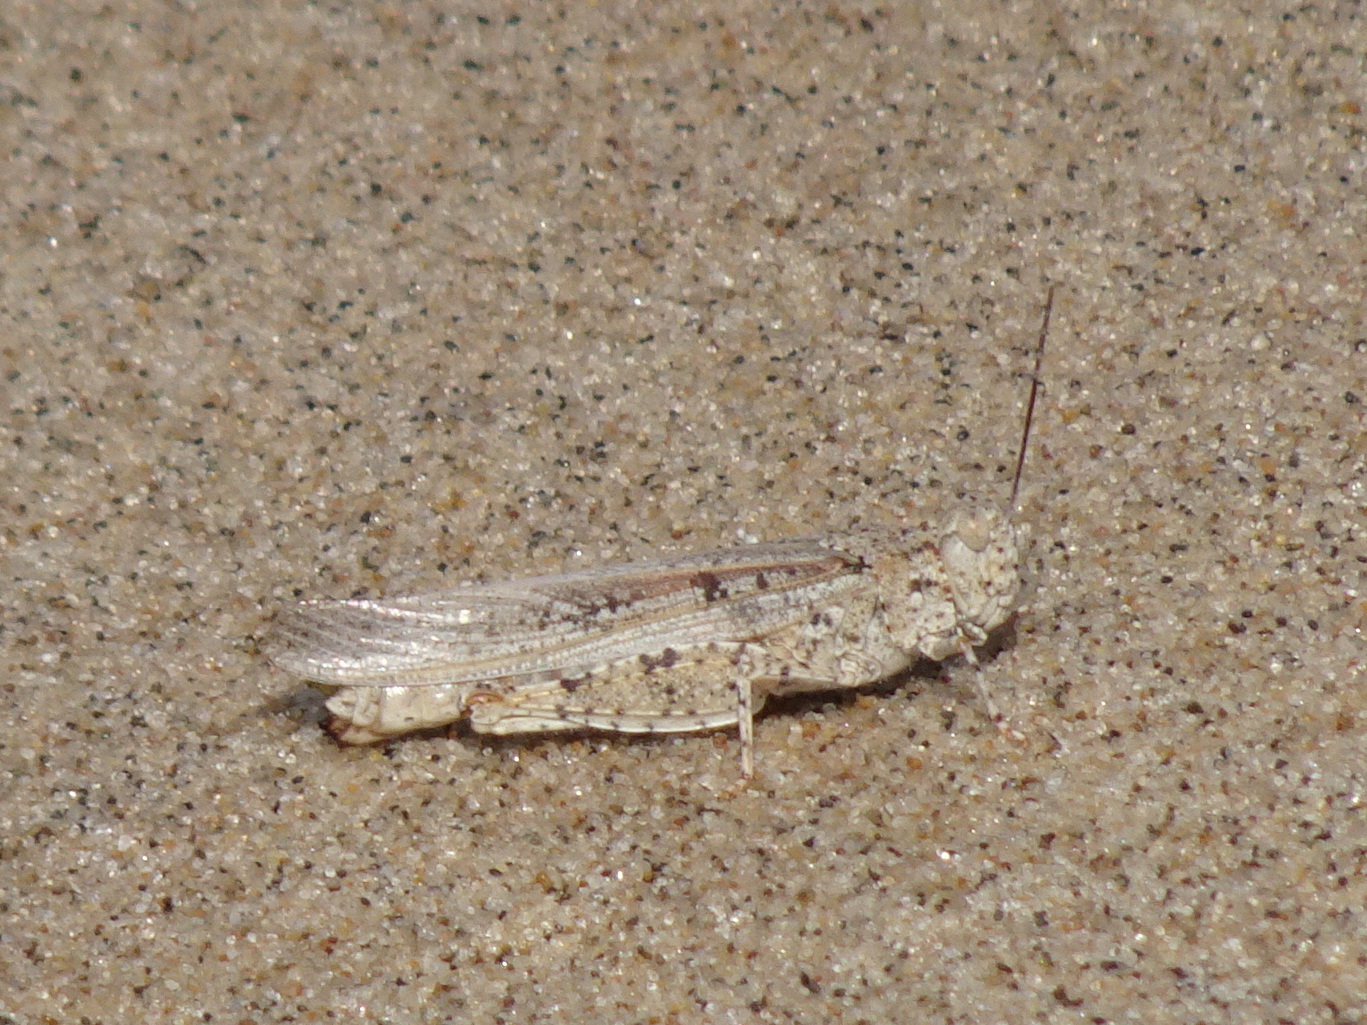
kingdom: Animalia
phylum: Arthropoda
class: Insecta
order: Orthoptera
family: Acrididae
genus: Trimerotropis
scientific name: Trimerotropis maritima
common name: Seaside locust
